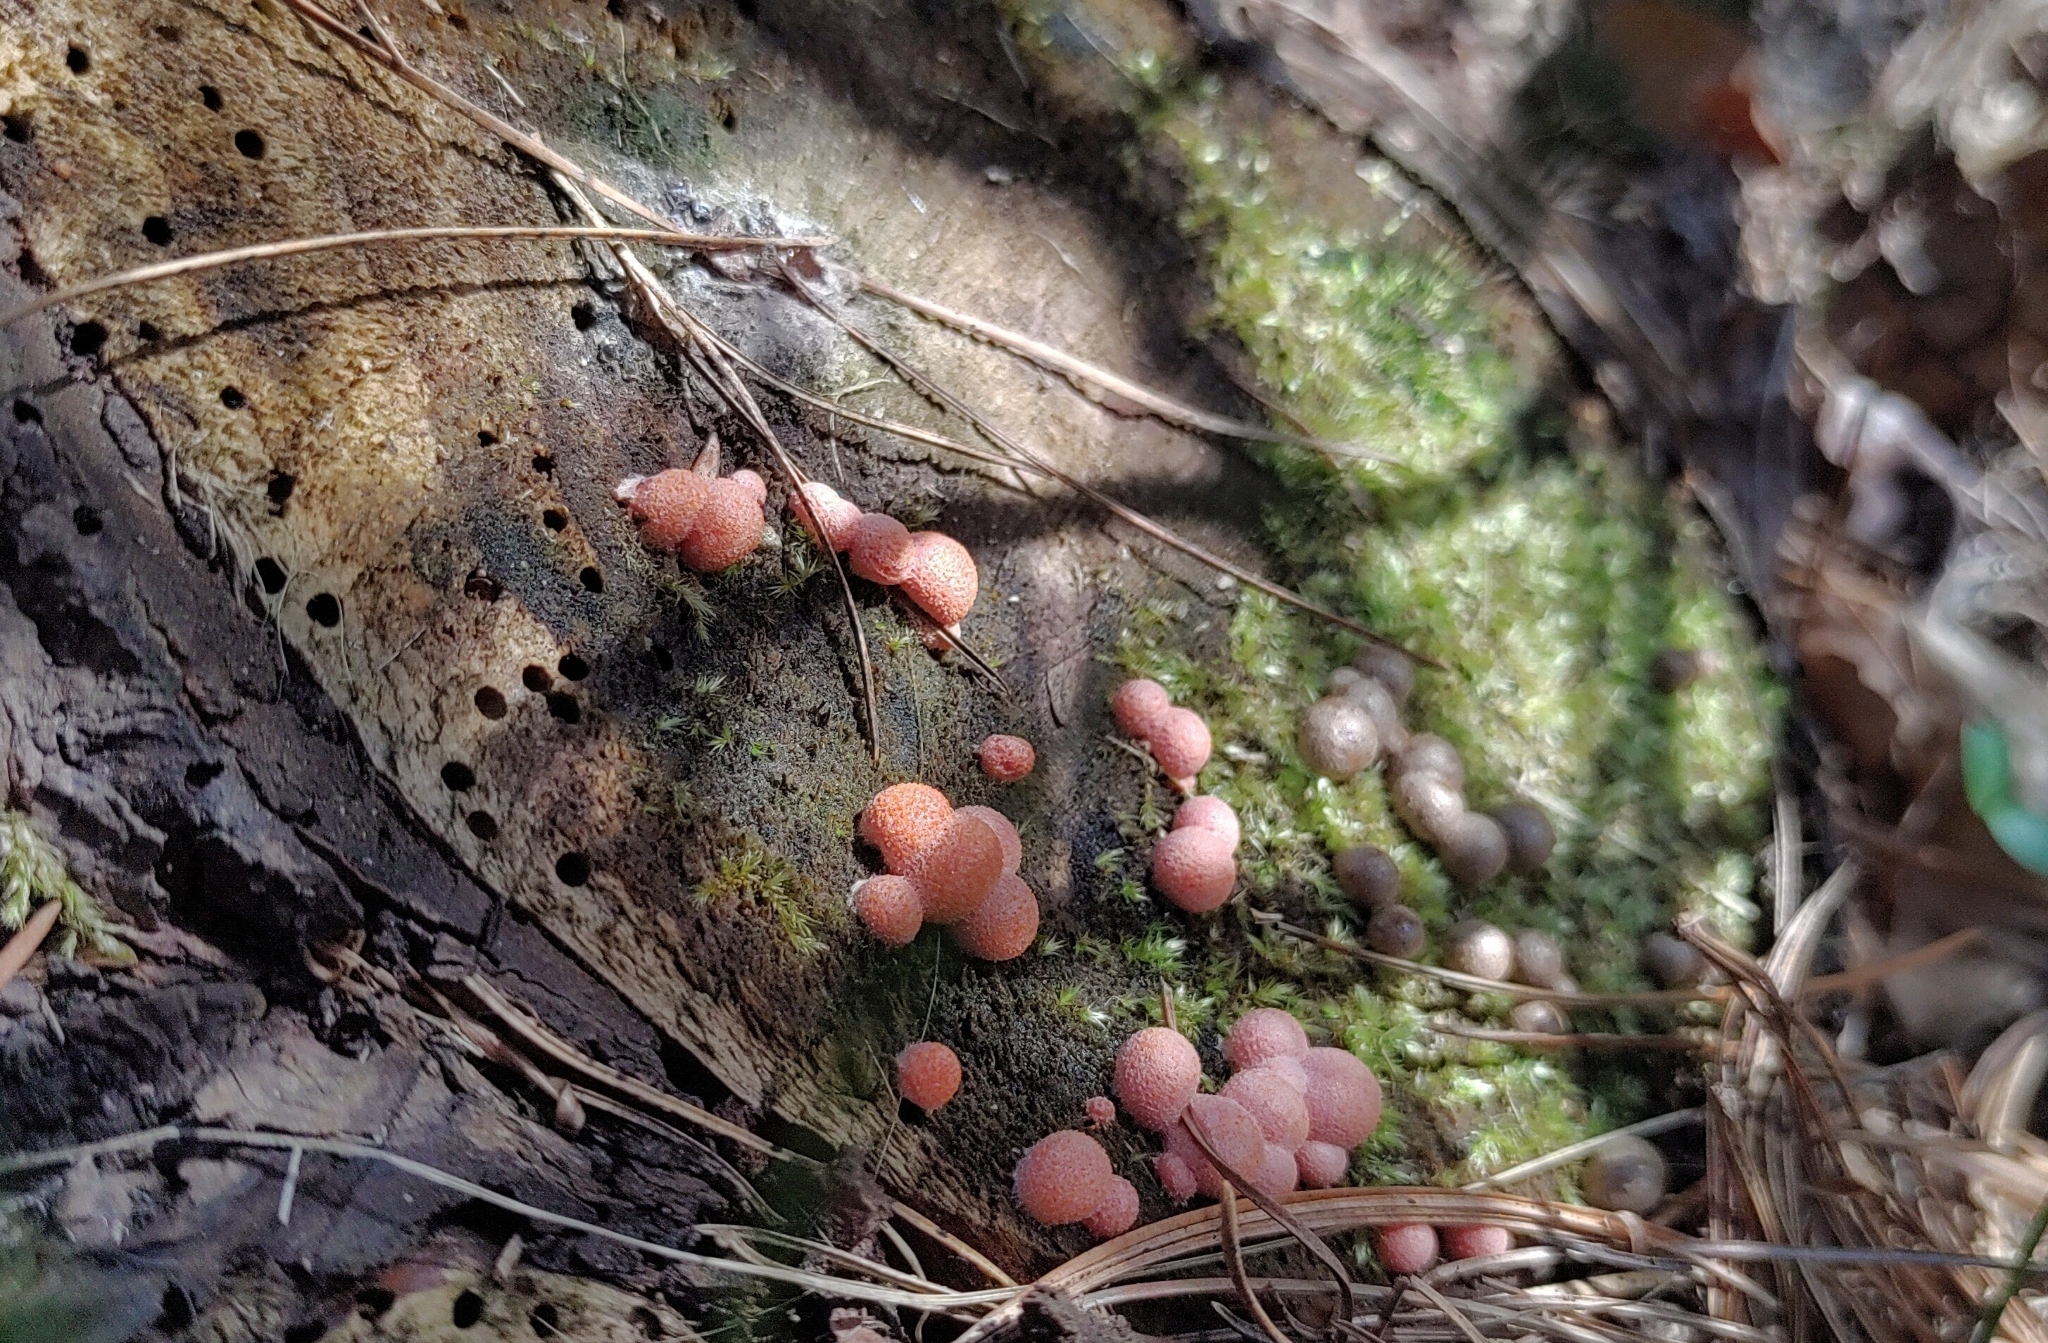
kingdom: Protozoa
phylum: Mycetozoa
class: Myxomycetes
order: Cribrariales
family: Tubiferaceae
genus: Lycogala
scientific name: Lycogala epidendrum
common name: Wolf's milk
